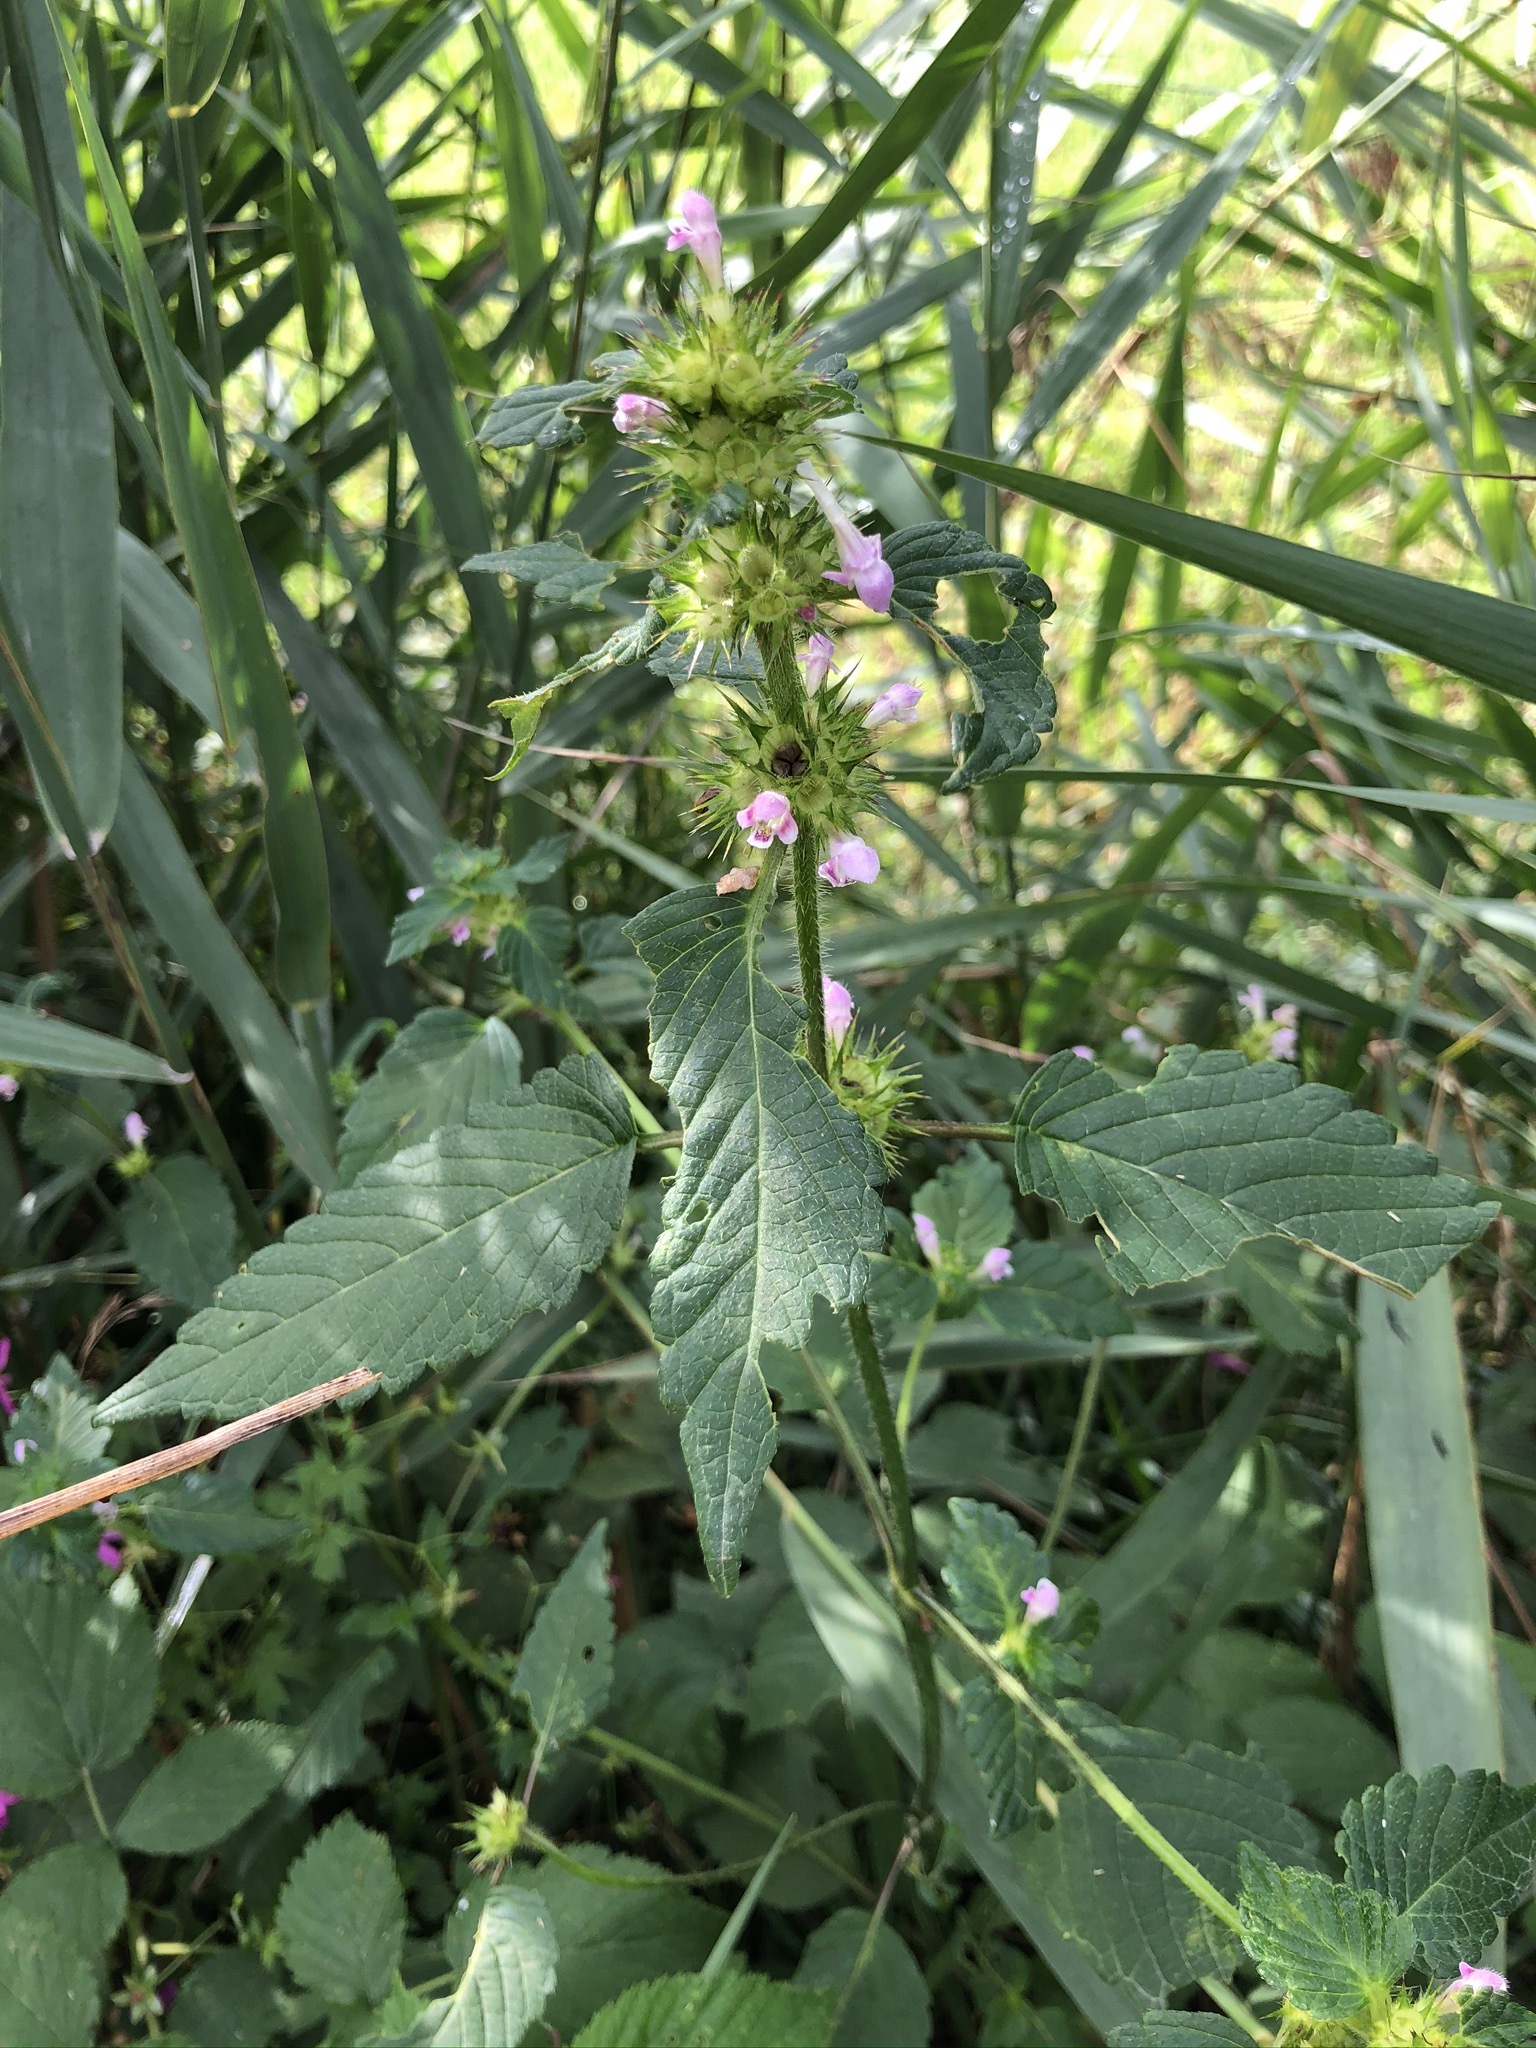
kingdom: Plantae
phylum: Tracheophyta
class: Magnoliopsida
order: Lamiales
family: Lamiaceae
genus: Galeopsis
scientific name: Galeopsis tetrahit
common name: Common hemp-nettle
